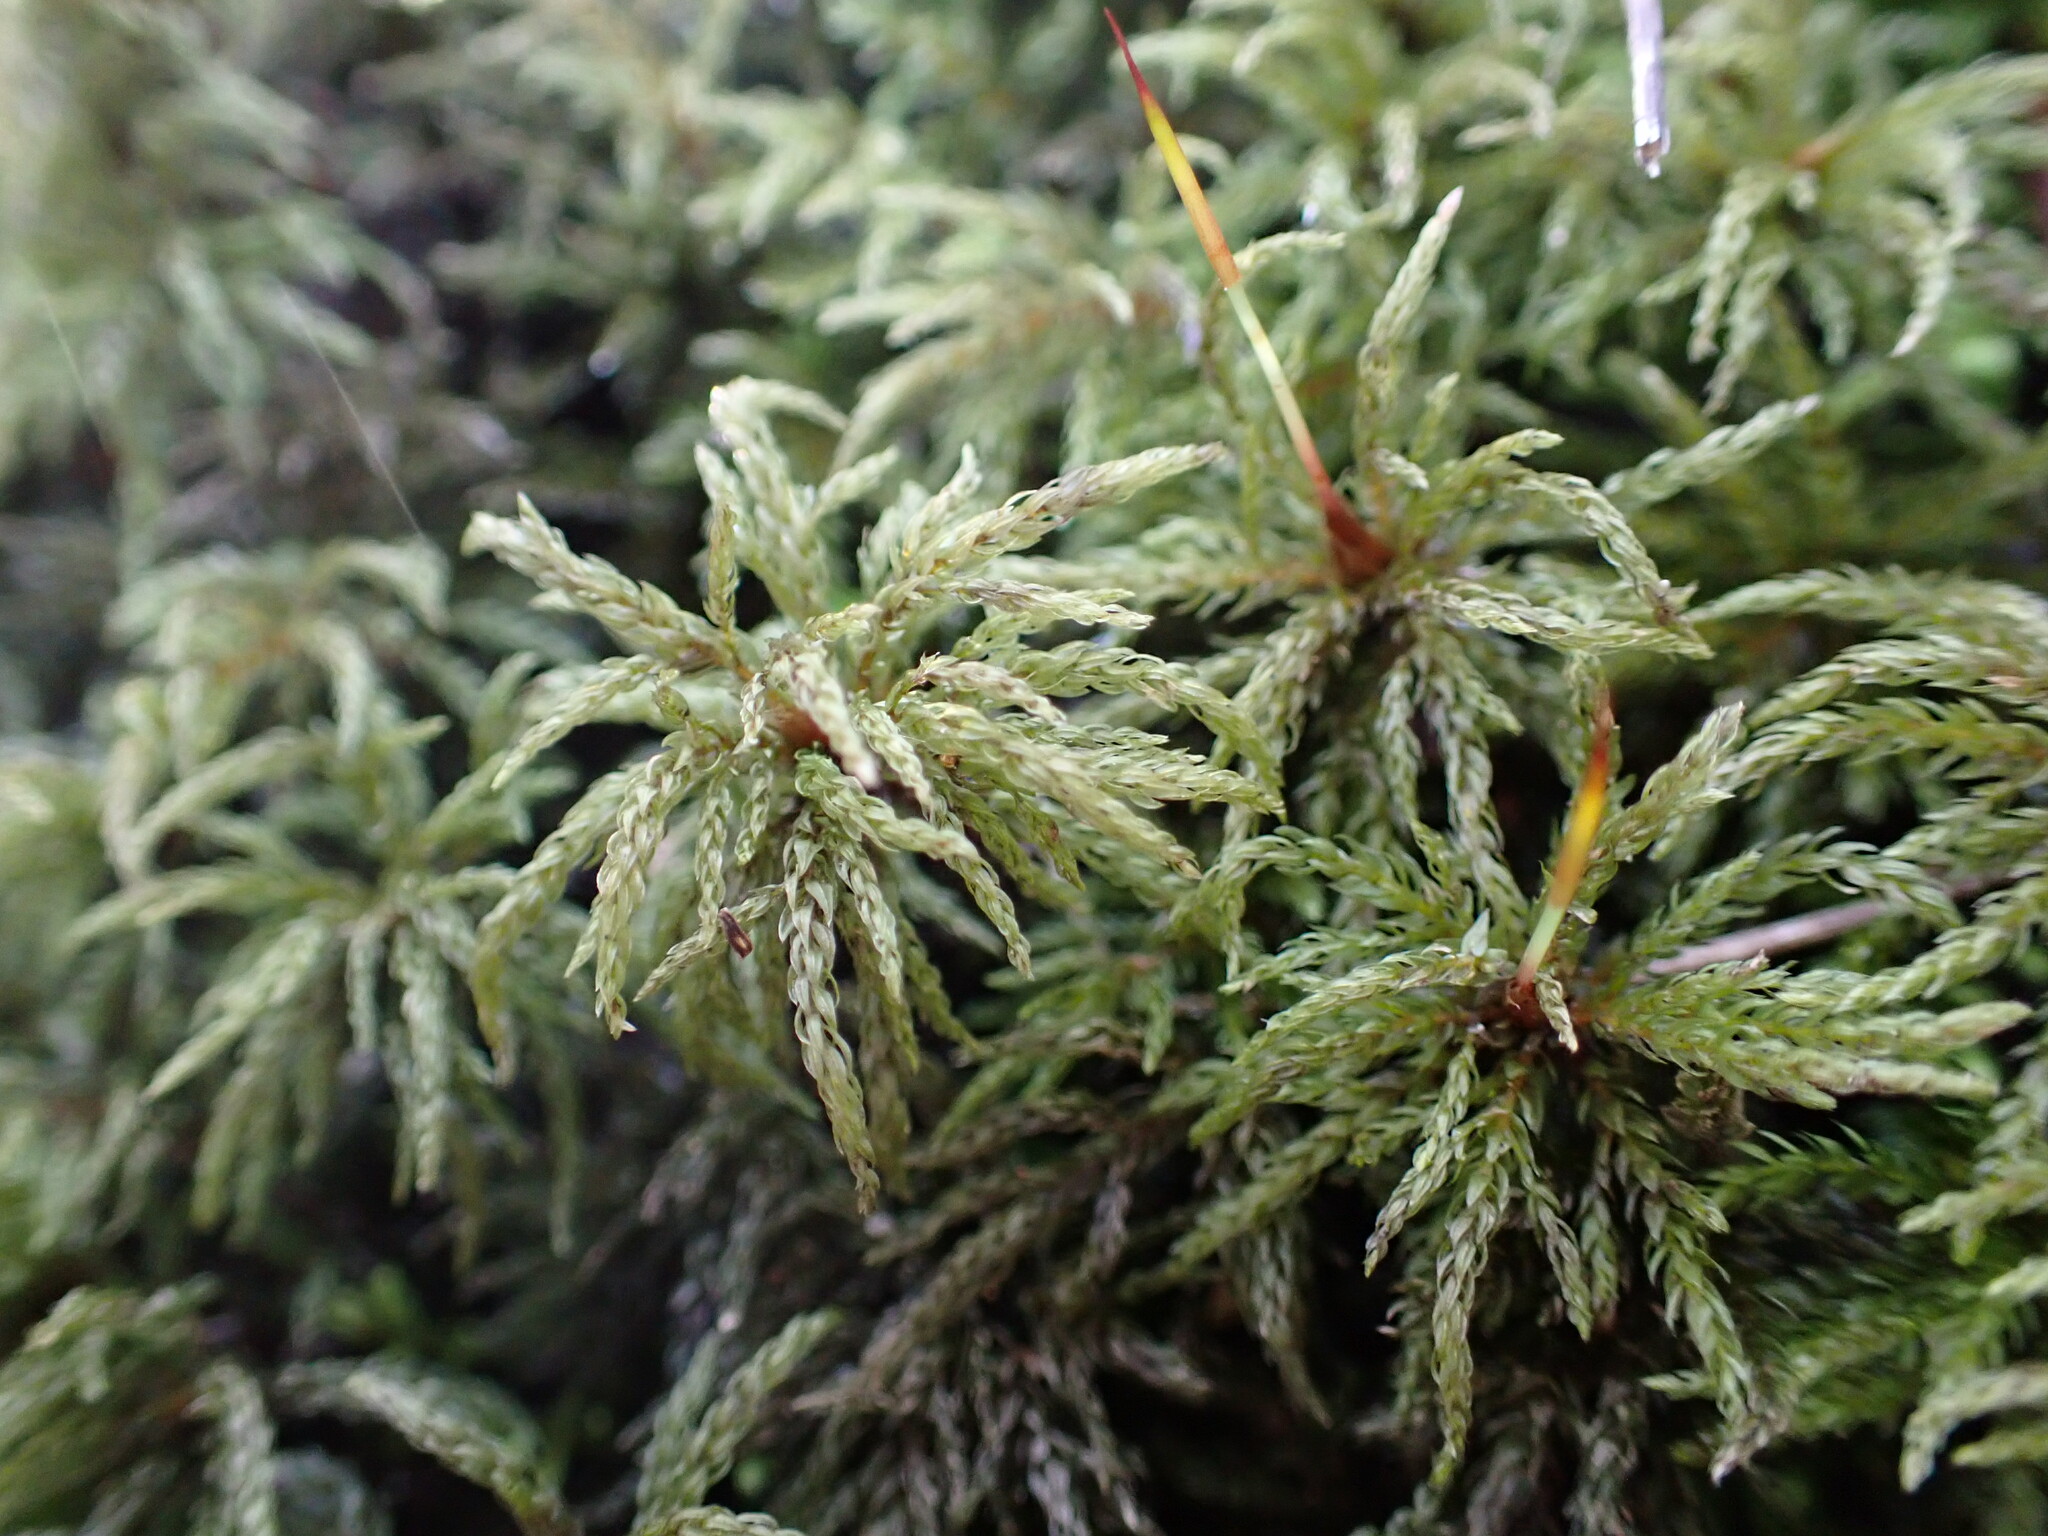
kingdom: Plantae
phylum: Bryophyta
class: Bryopsida
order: Bryales
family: Mniaceae
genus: Leucolepis
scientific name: Leucolepis acanthoneura
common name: Leucolepis umbrella moss
